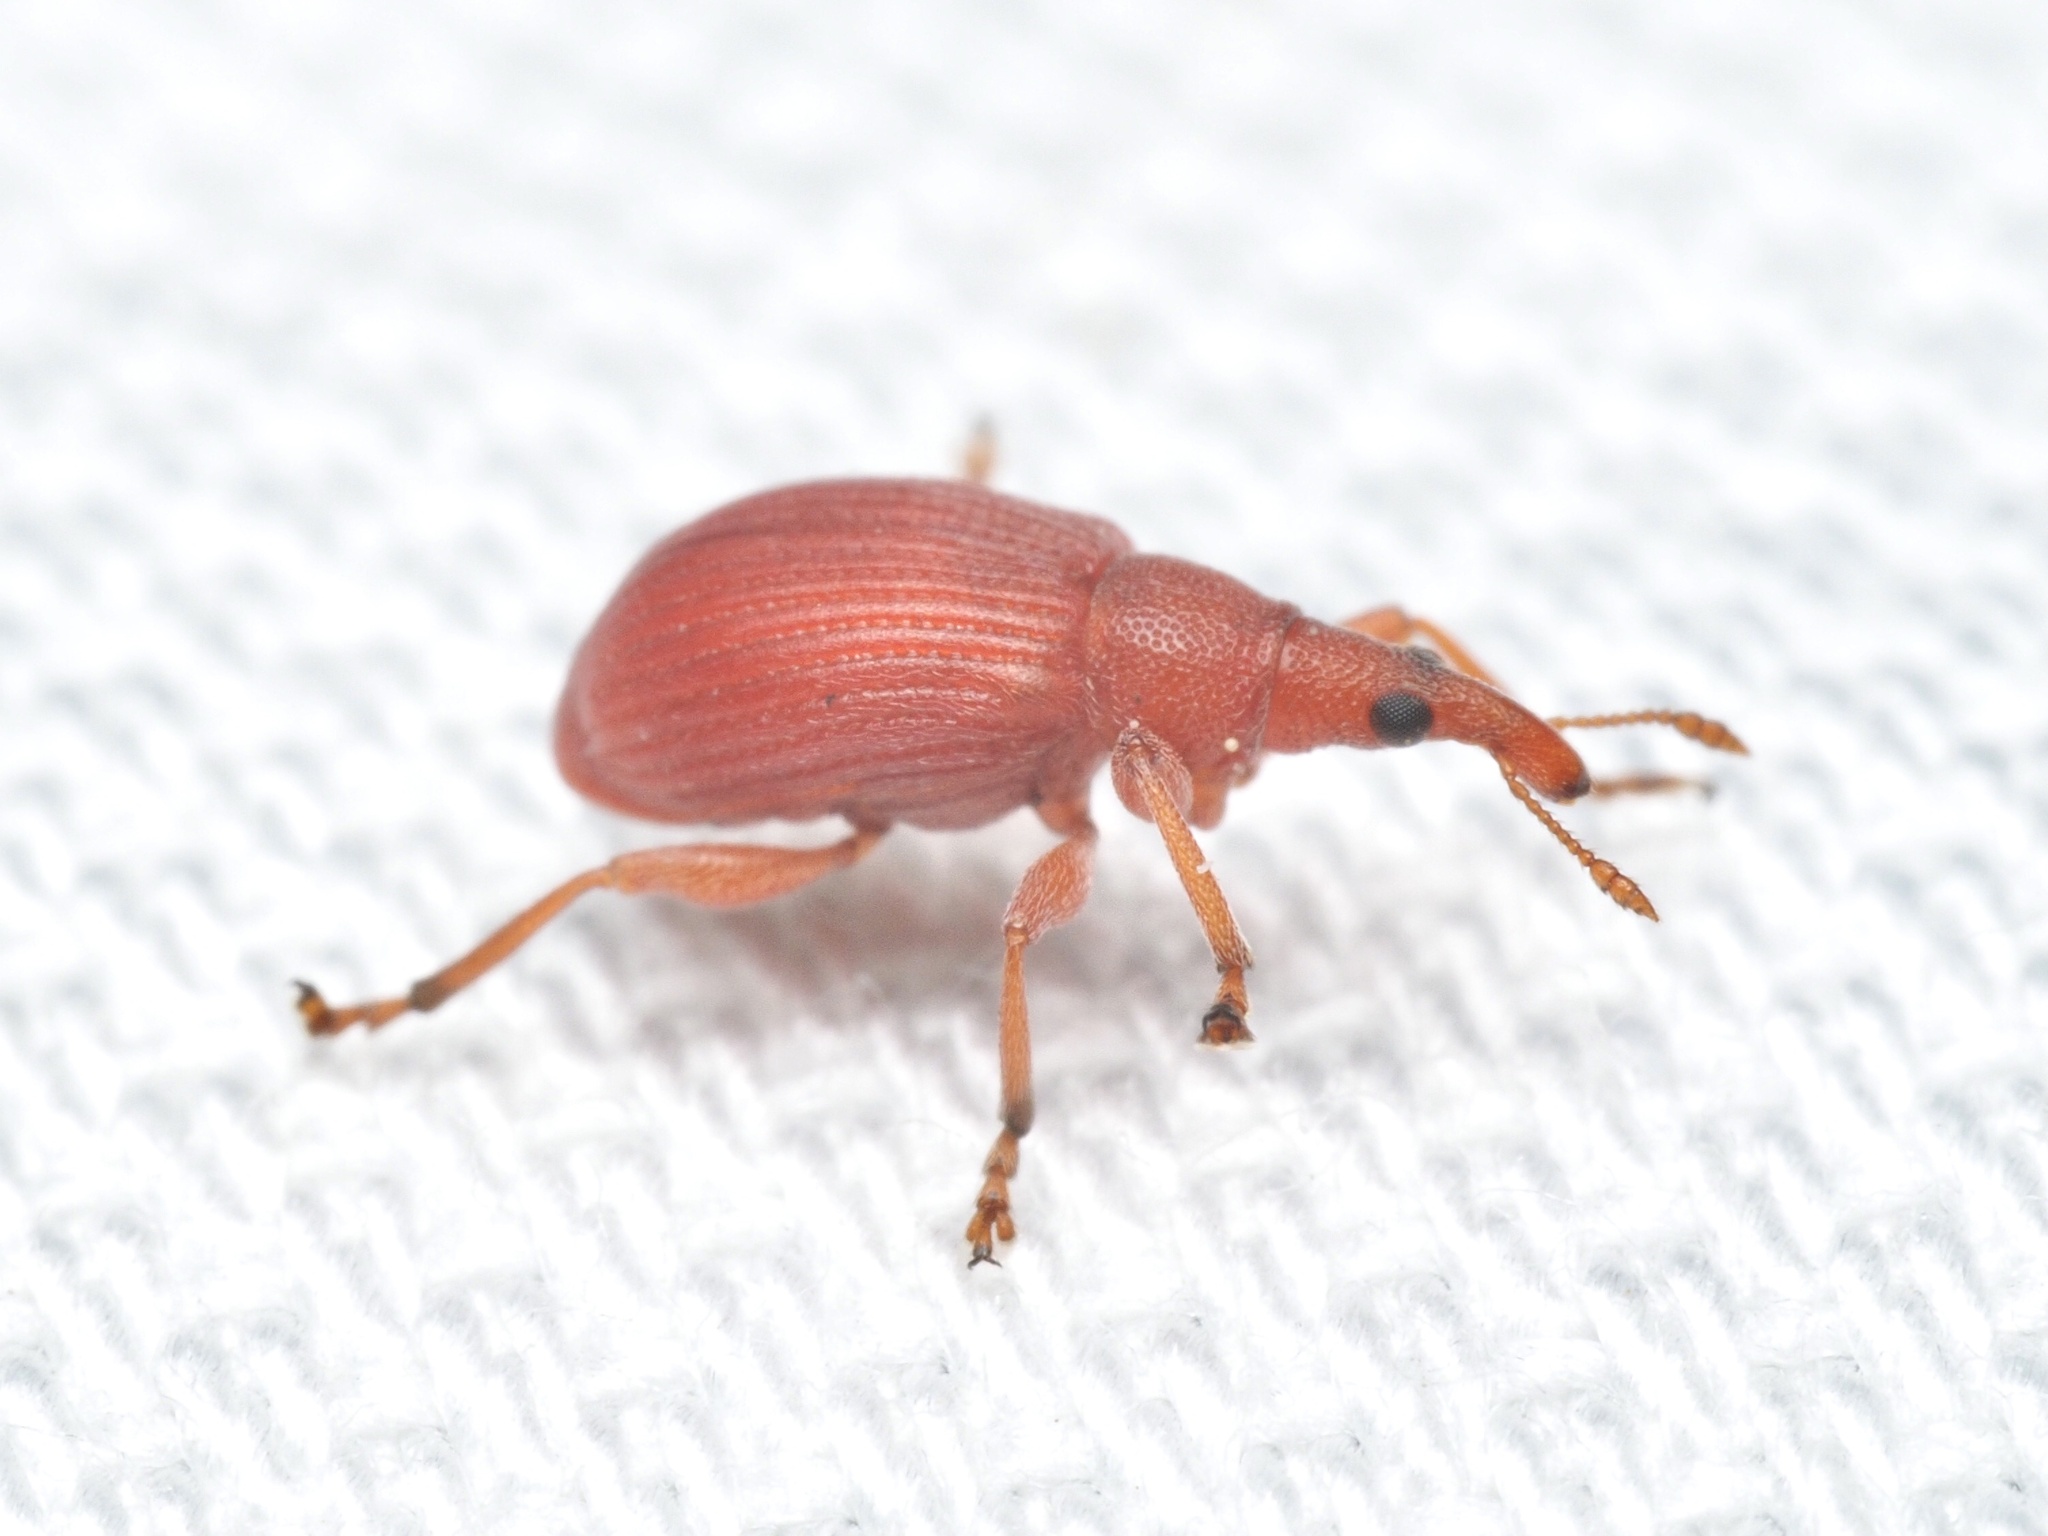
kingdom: Animalia
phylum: Arthropoda
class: Insecta
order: Coleoptera
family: Apionidae
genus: Apion
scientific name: Apion frumentarium
